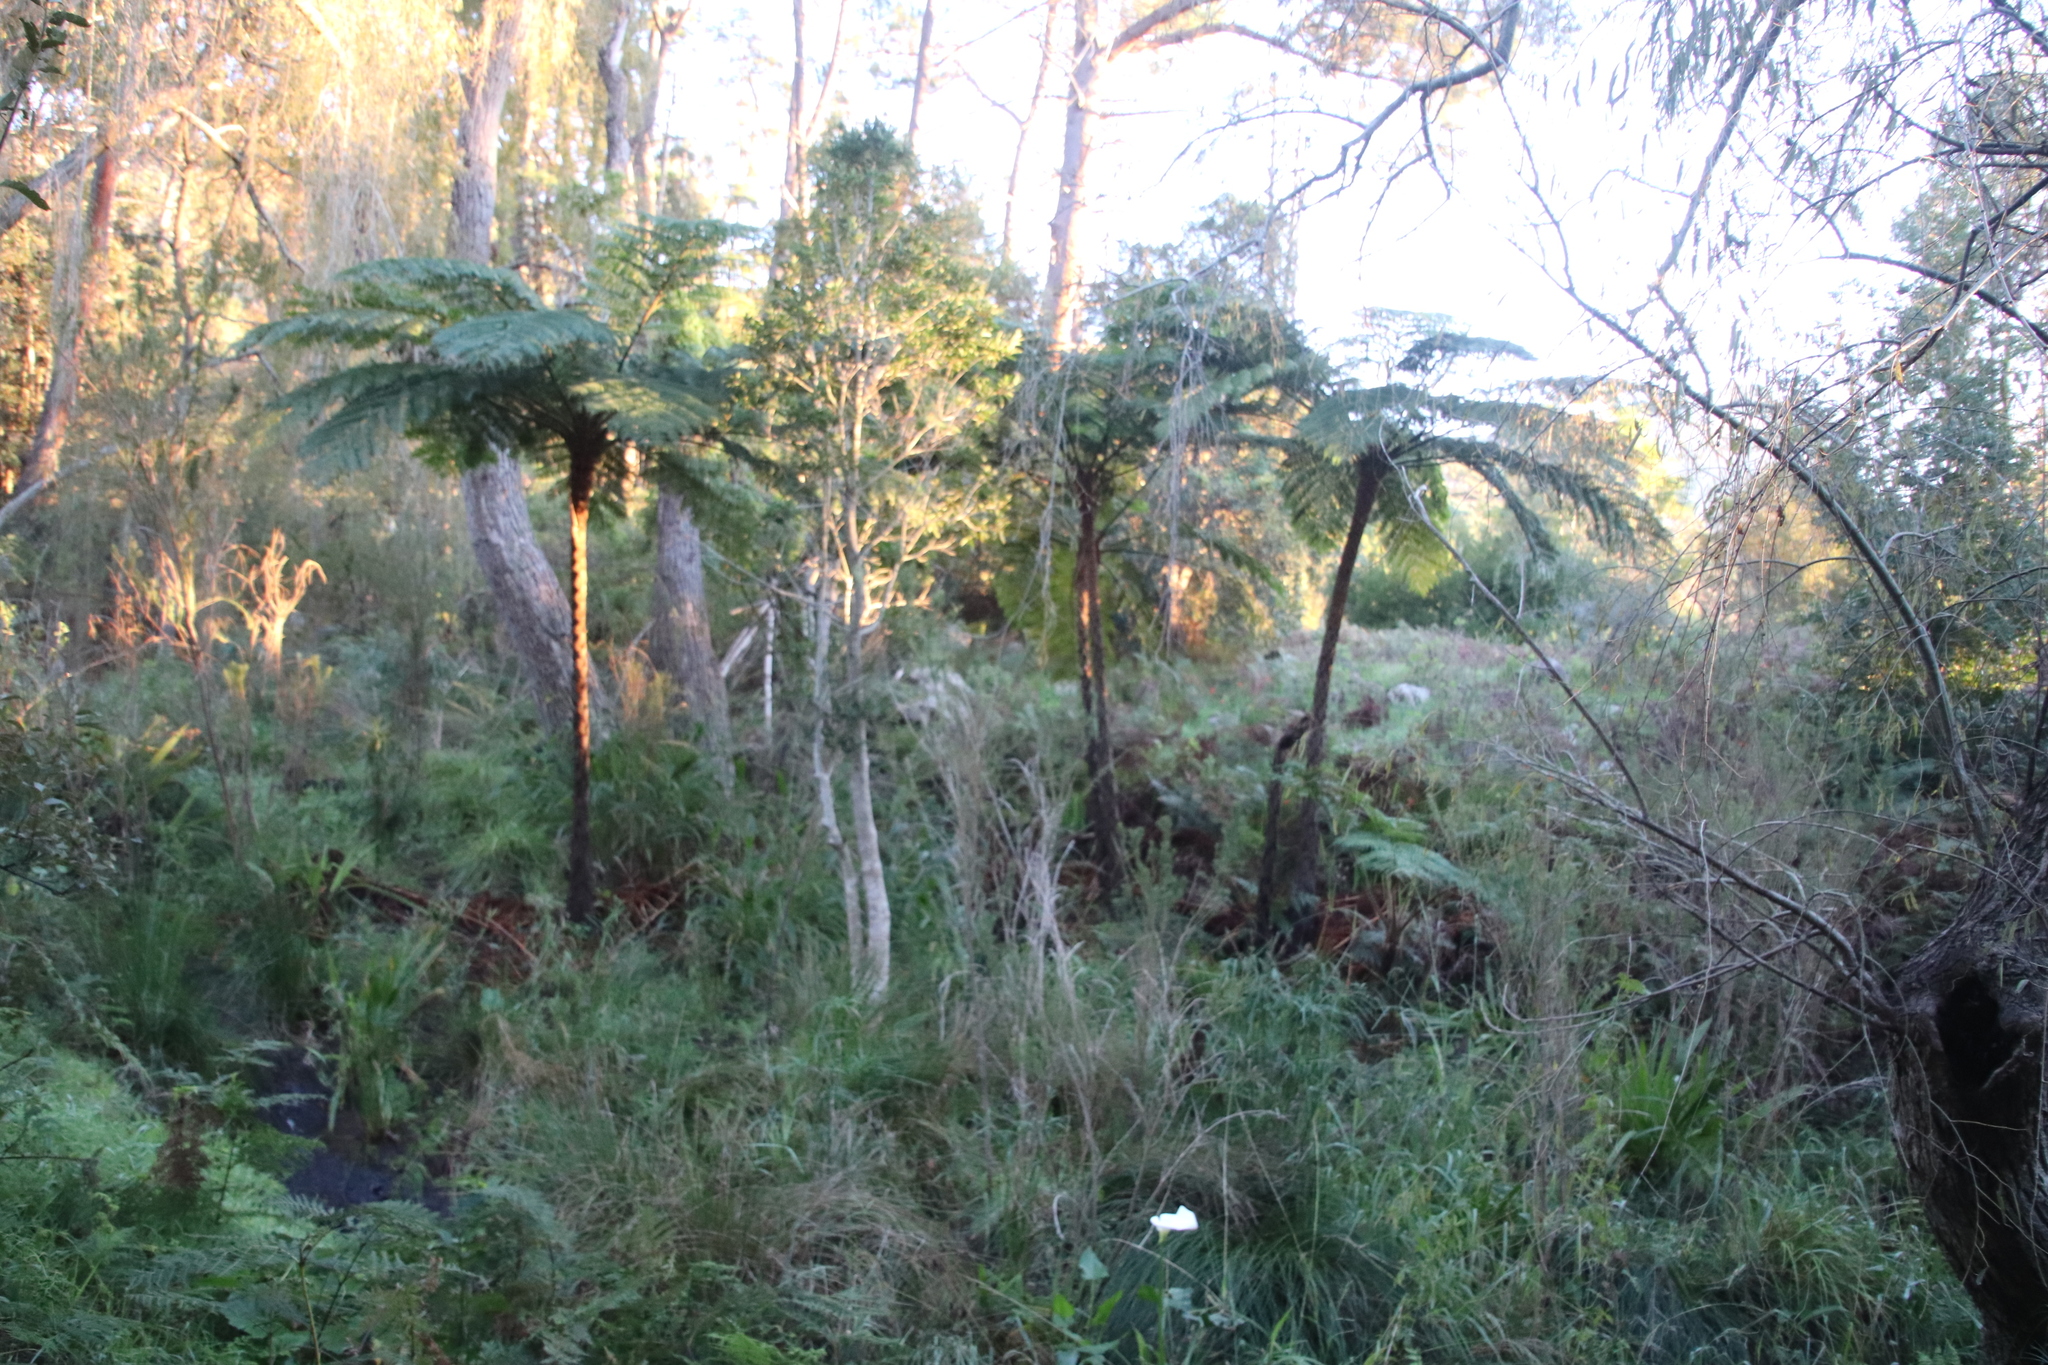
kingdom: Plantae
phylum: Tracheophyta
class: Polypodiopsida
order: Cyatheales
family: Cyatheaceae
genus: Sphaeropteris
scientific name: Sphaeropteris cooperi
